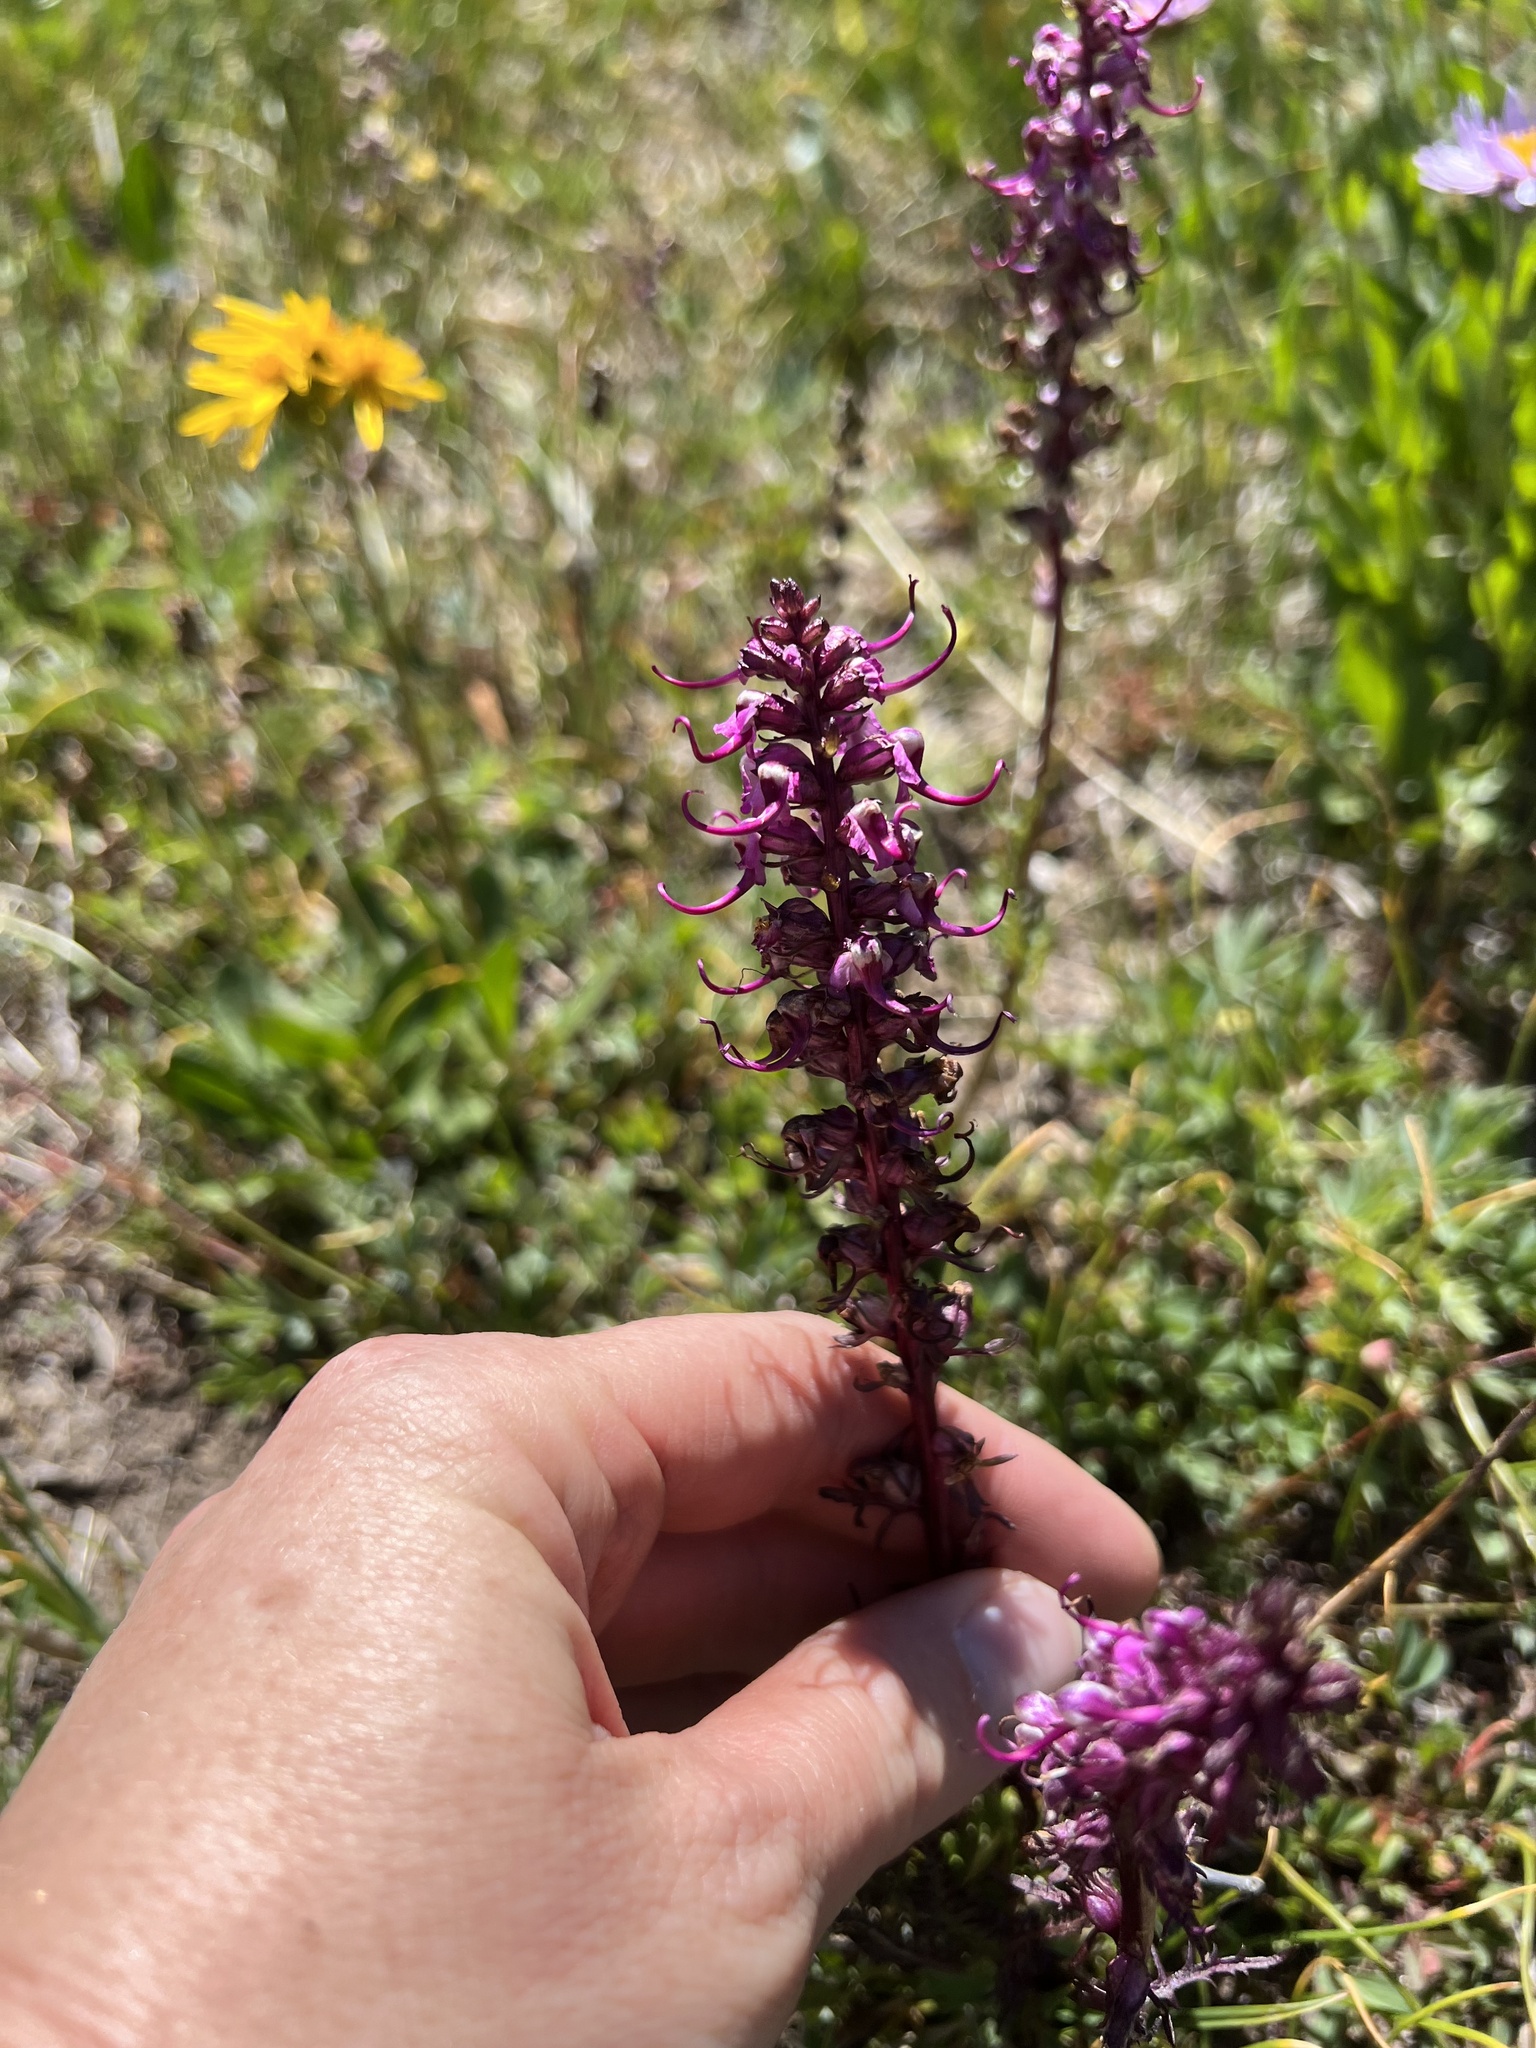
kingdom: Plantae
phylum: Tracheophyta
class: Magnoliopsida
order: Lamiales
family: Orobanchaceae
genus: Pedicularis
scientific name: Pedicularis groenlandica
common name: Elephant's-head
